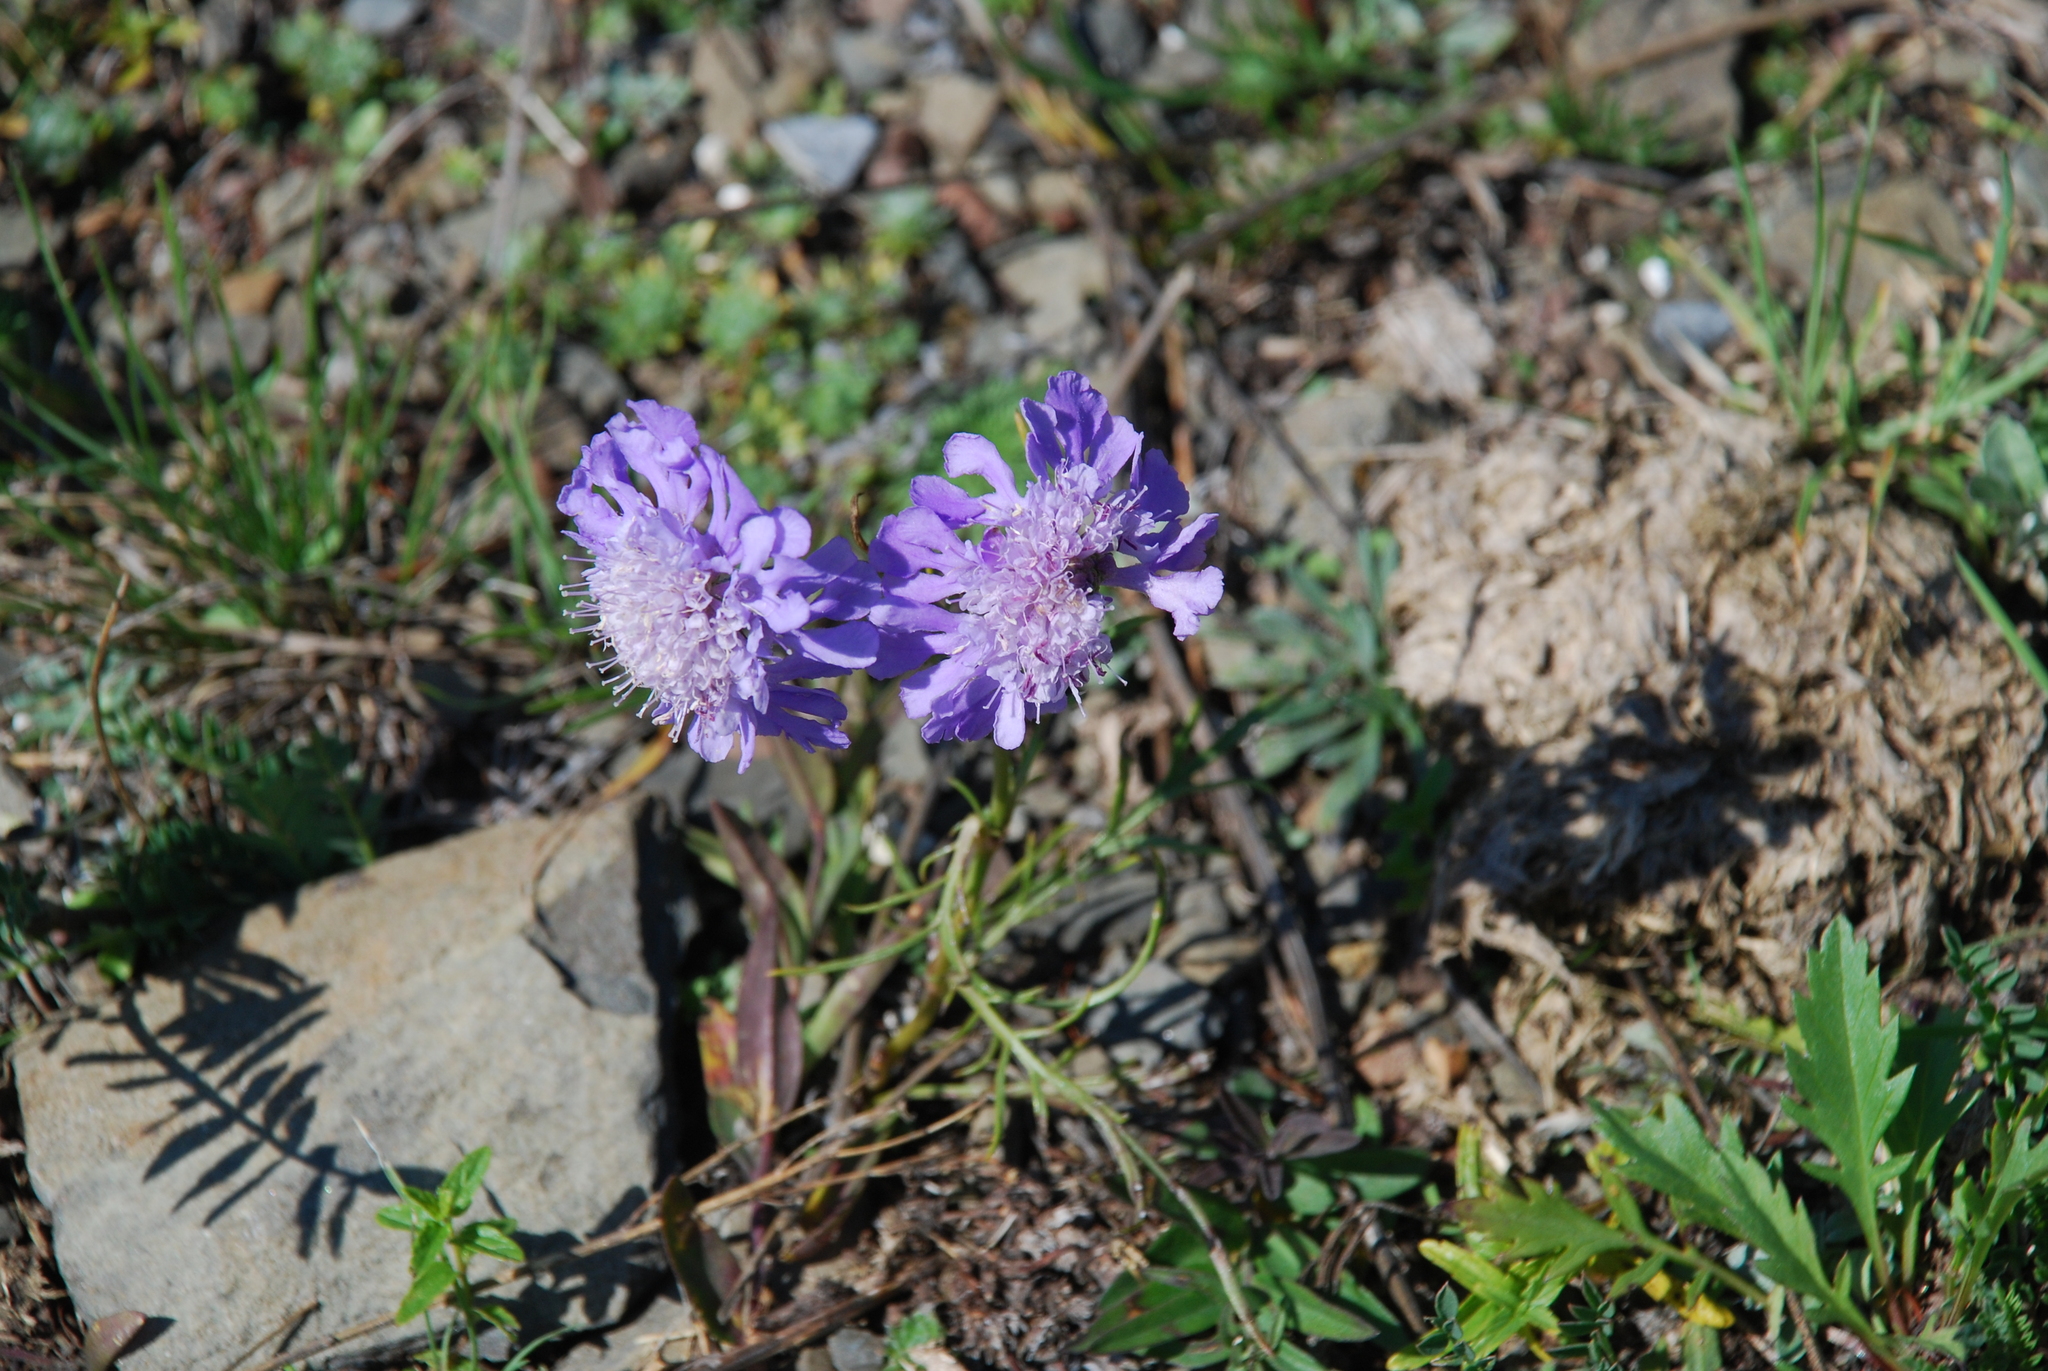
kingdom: Plantae
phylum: Tracheophyta
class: Magnoliopsida
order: Dipsacales
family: Caprifoliaceae
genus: Scabiosa
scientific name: Scabiosa comosa
